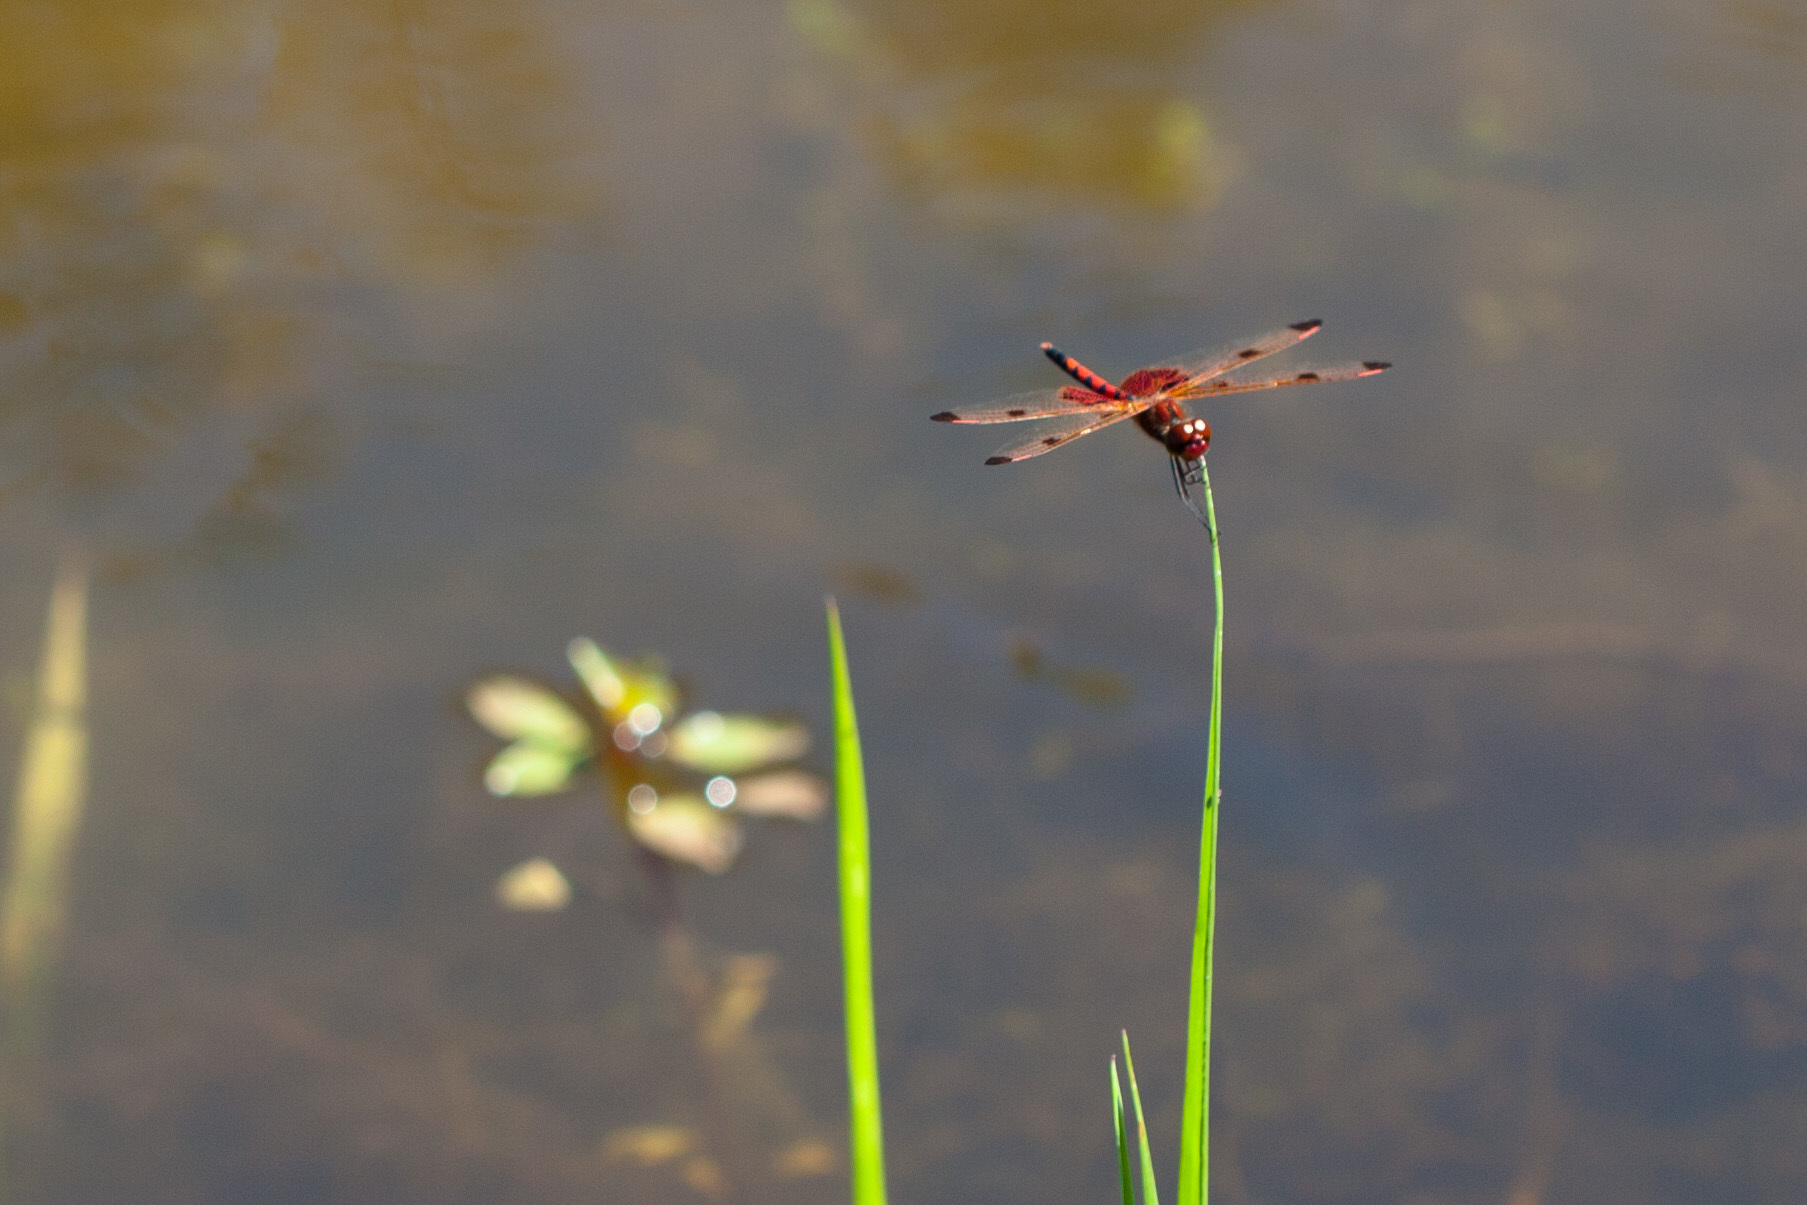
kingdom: Animalia
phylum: Arthropoda
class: Insecta
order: Odonata
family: Libellulidae
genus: Celithemis
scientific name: Celithemis elisa
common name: Calico pennant
